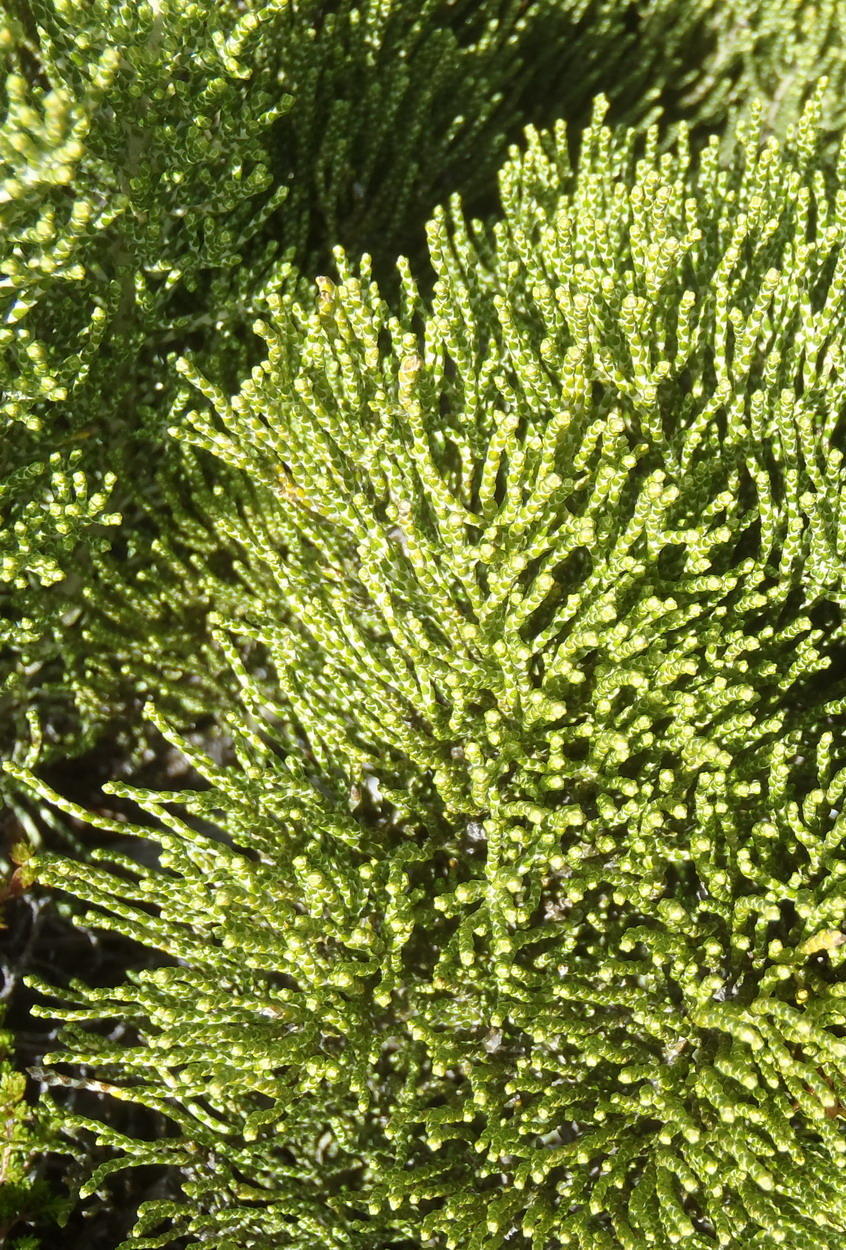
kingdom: Plantae
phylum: Tracheophyta
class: Magnoliopsida
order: Asterales
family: Asteraceae
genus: Dolichothrix
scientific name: Dolichothrix ericoides
